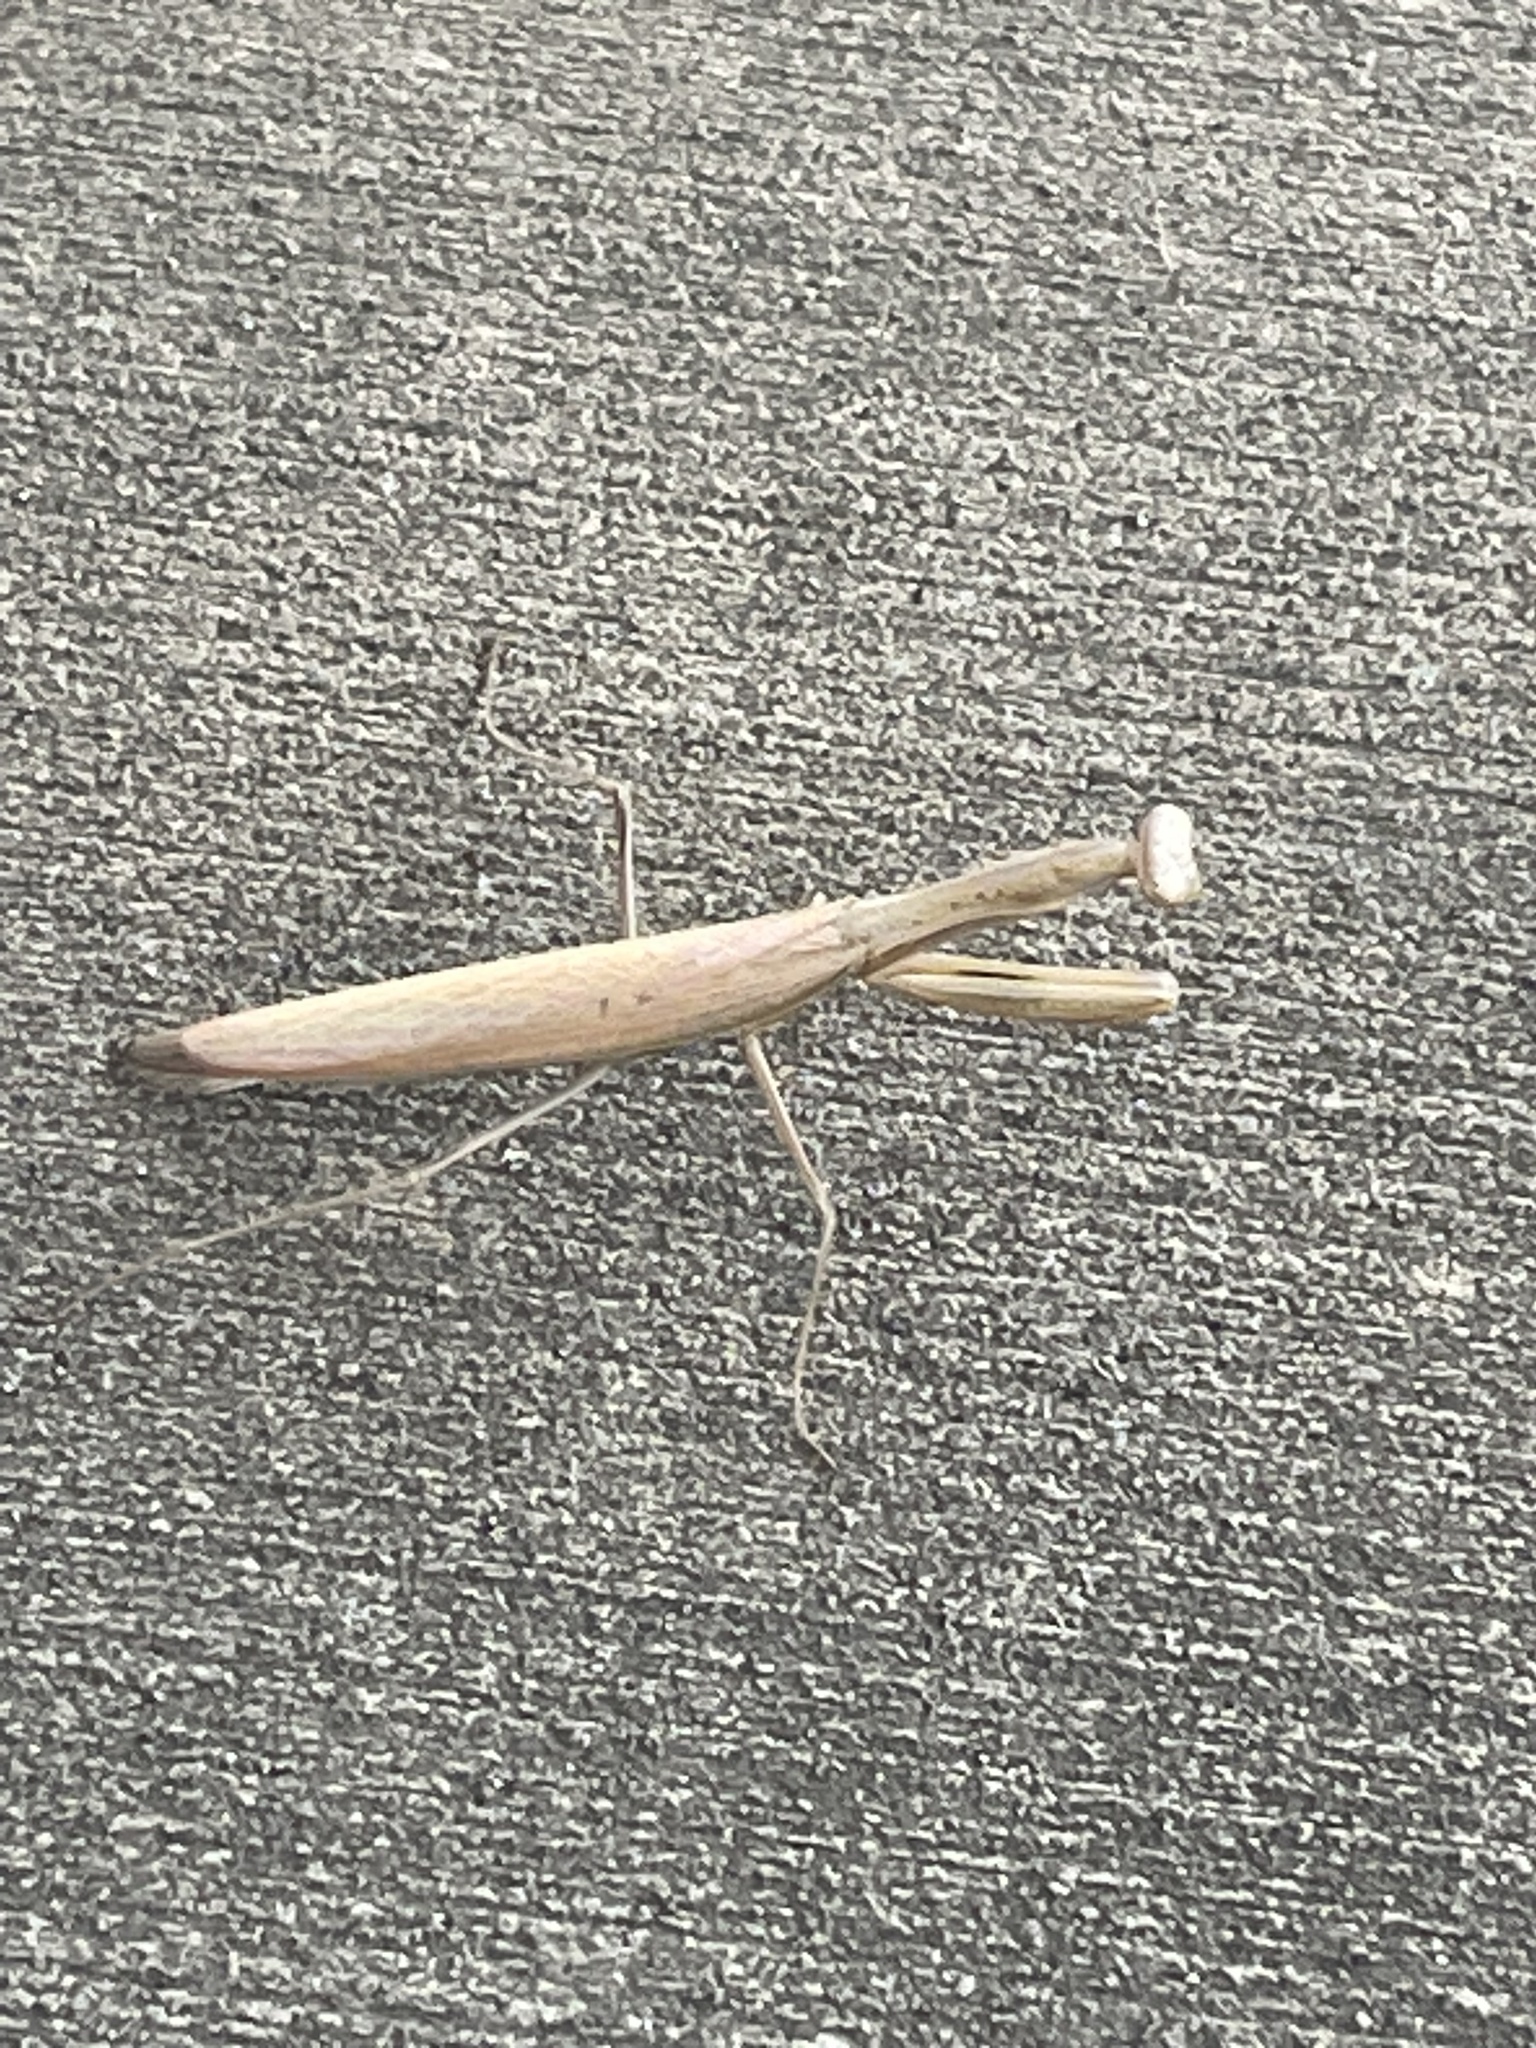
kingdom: Animalia
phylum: Arthropoda
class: Insecta
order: Mantodea
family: Mantidae
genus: Statilia
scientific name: Statilia apicalis
